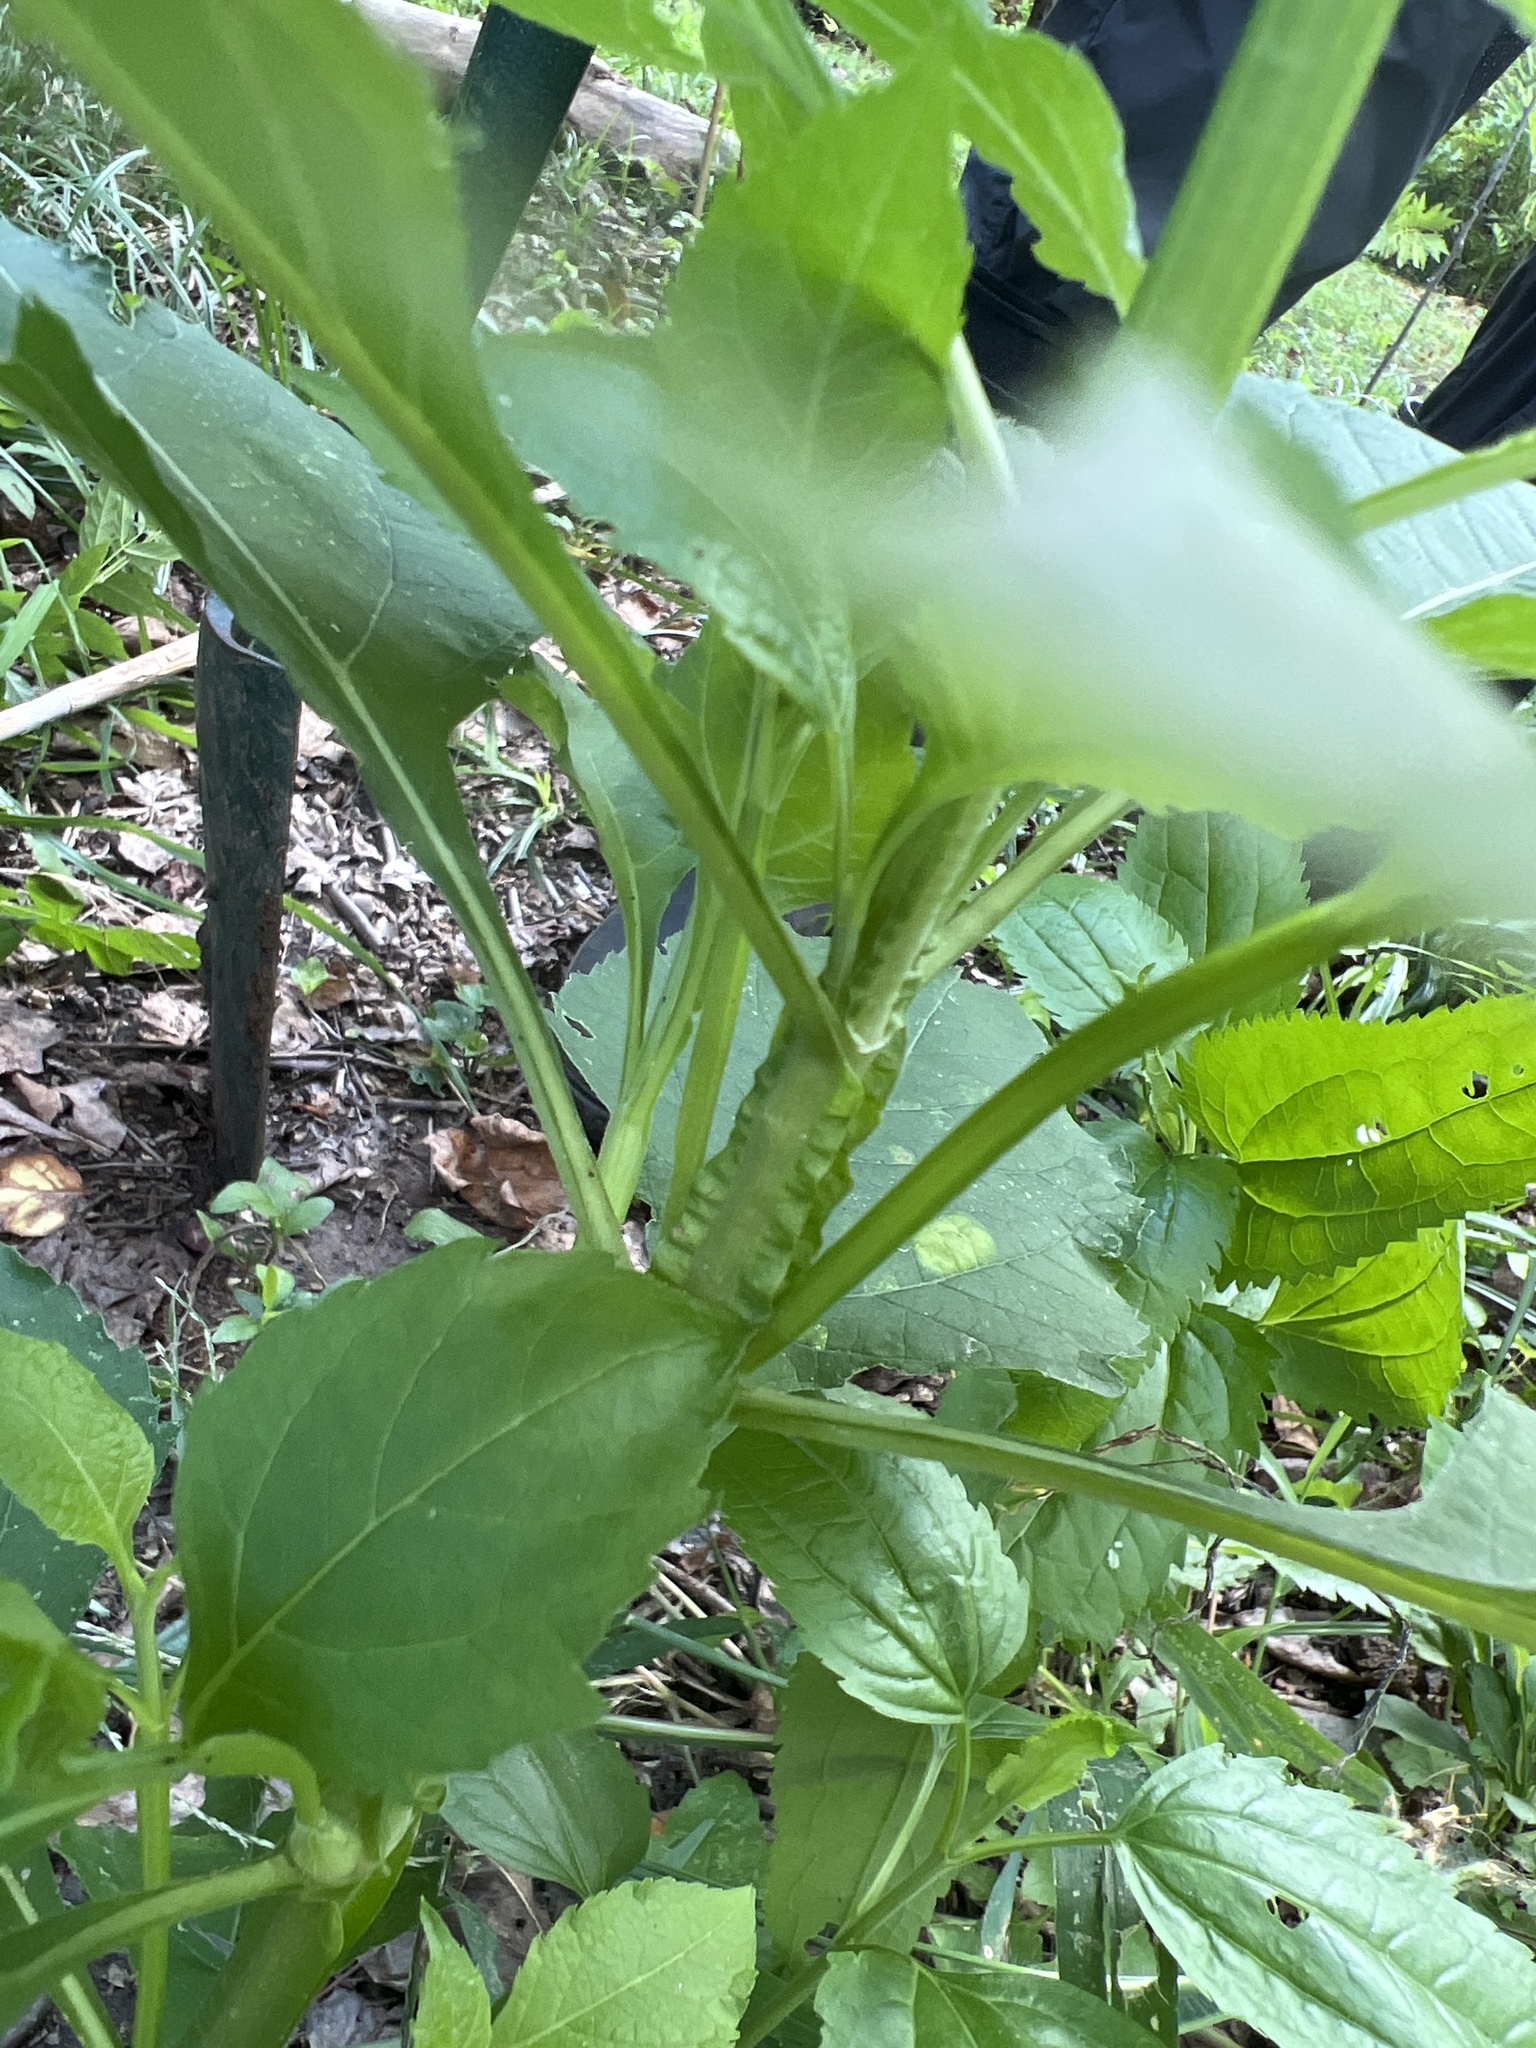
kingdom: Plantae
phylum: Tracheophyta
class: Magnoliopsida
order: Asterales
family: Asteraceae
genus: Verbesina
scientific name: Verbesina occidentalis
